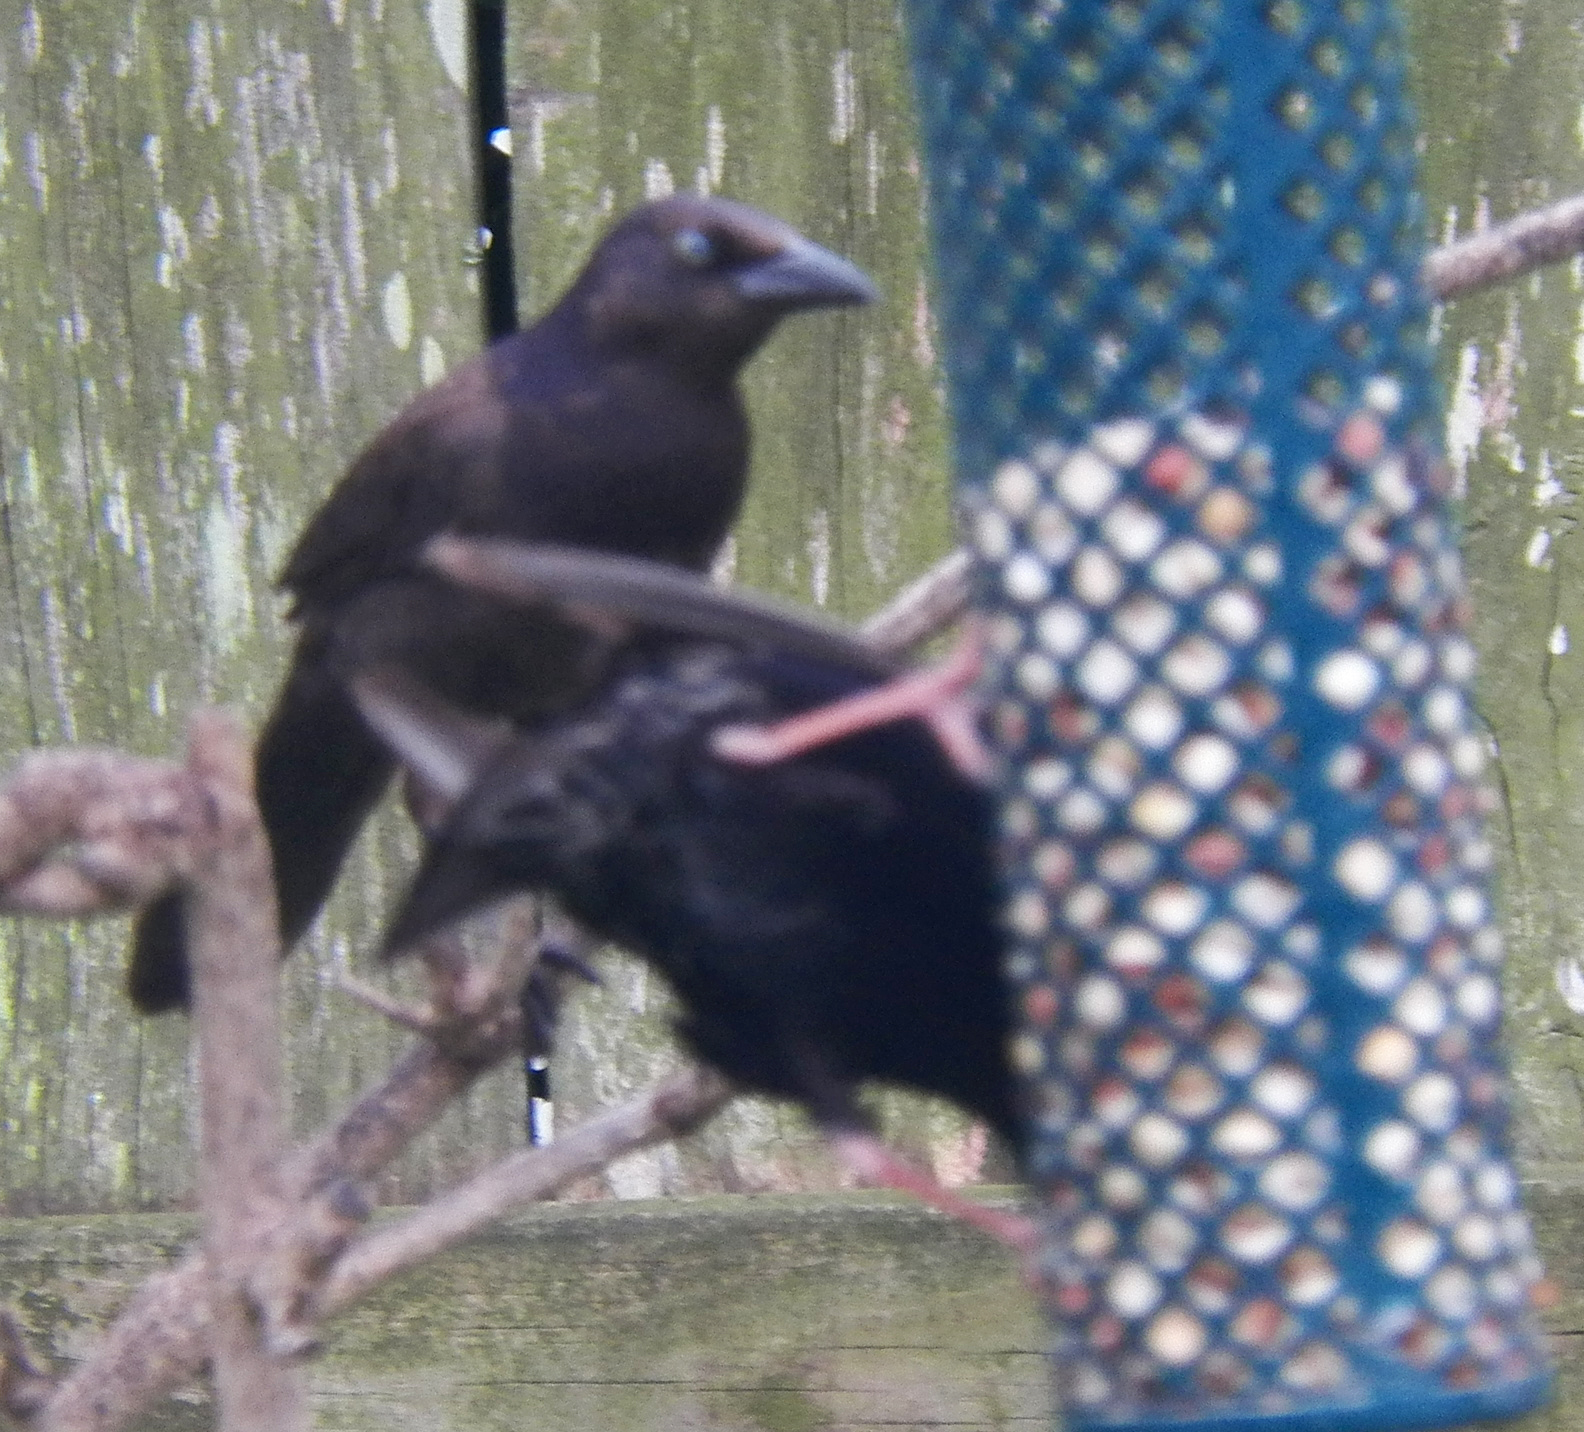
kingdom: Animalia
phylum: Chordata
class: Aves
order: Passeriformes
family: Icteridae
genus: Quiscalus
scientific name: Quiscalus quiscula
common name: Common grackle
